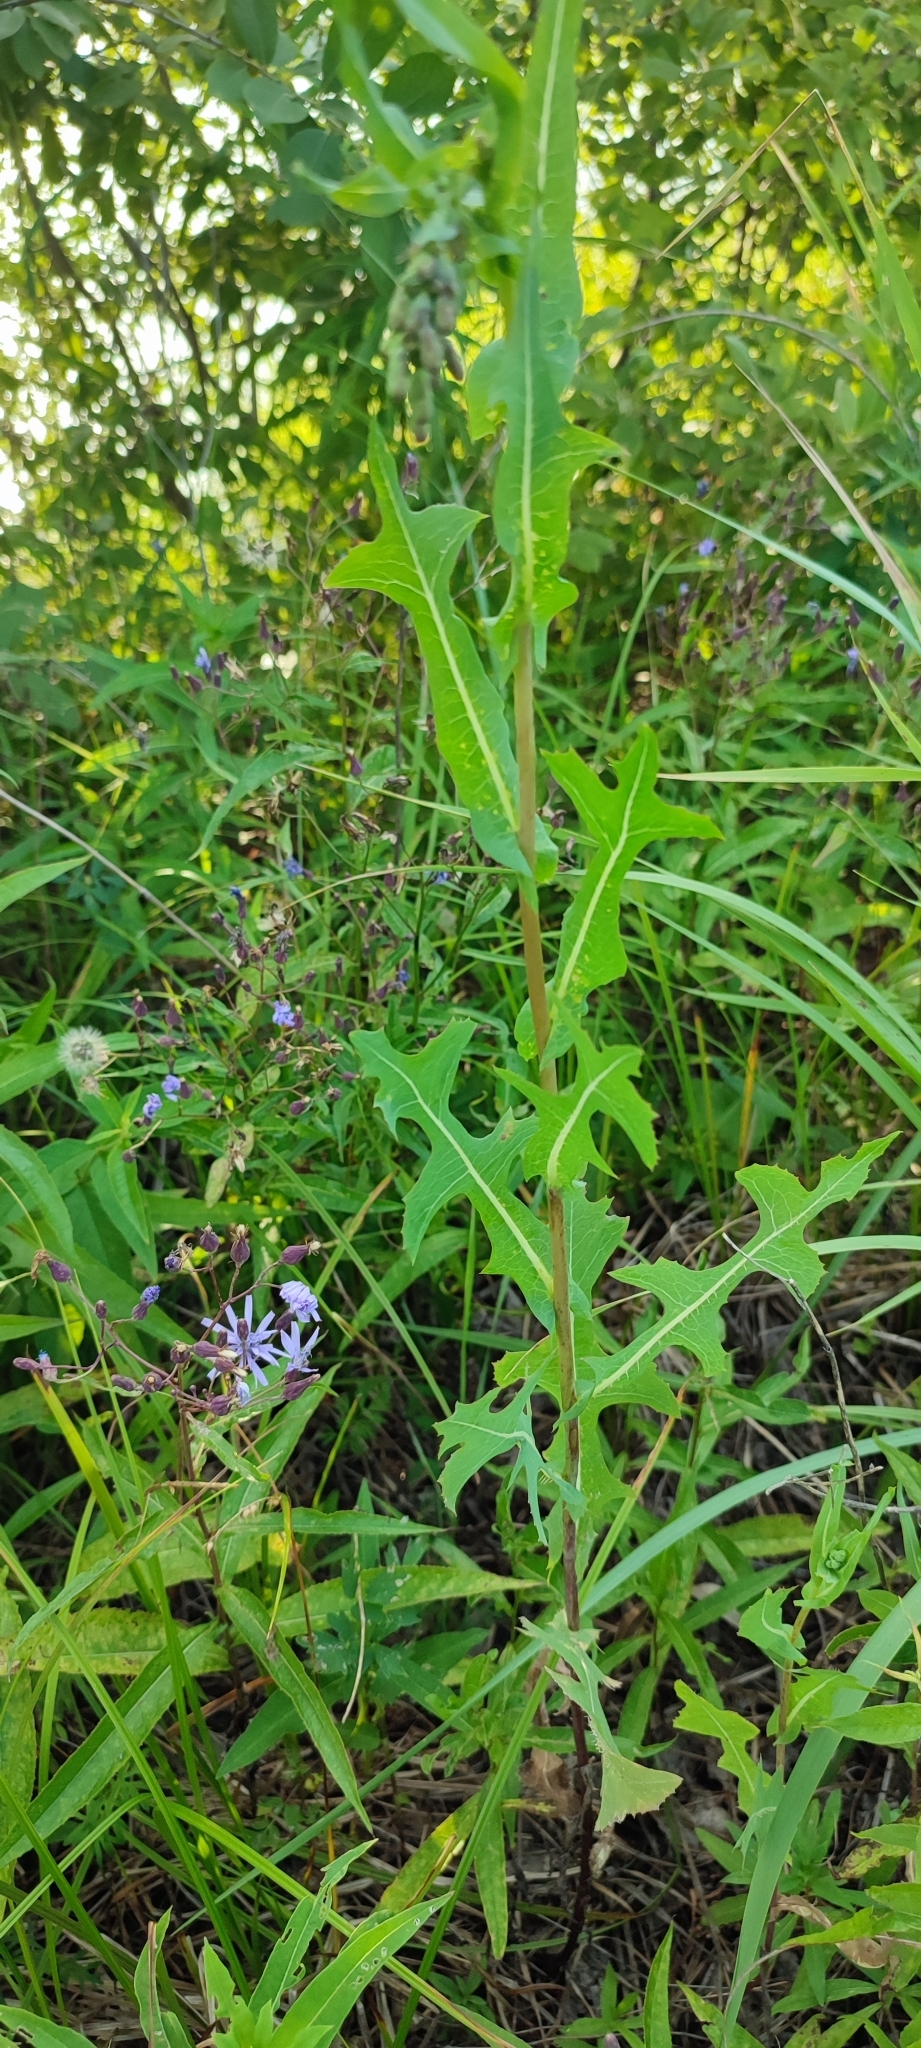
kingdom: Plantae
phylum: Tracheophyta
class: Magnoliopsida
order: Asterales
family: Asteraceae
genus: Lactuca
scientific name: Lactuca serriola
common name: Prickly lettuce
